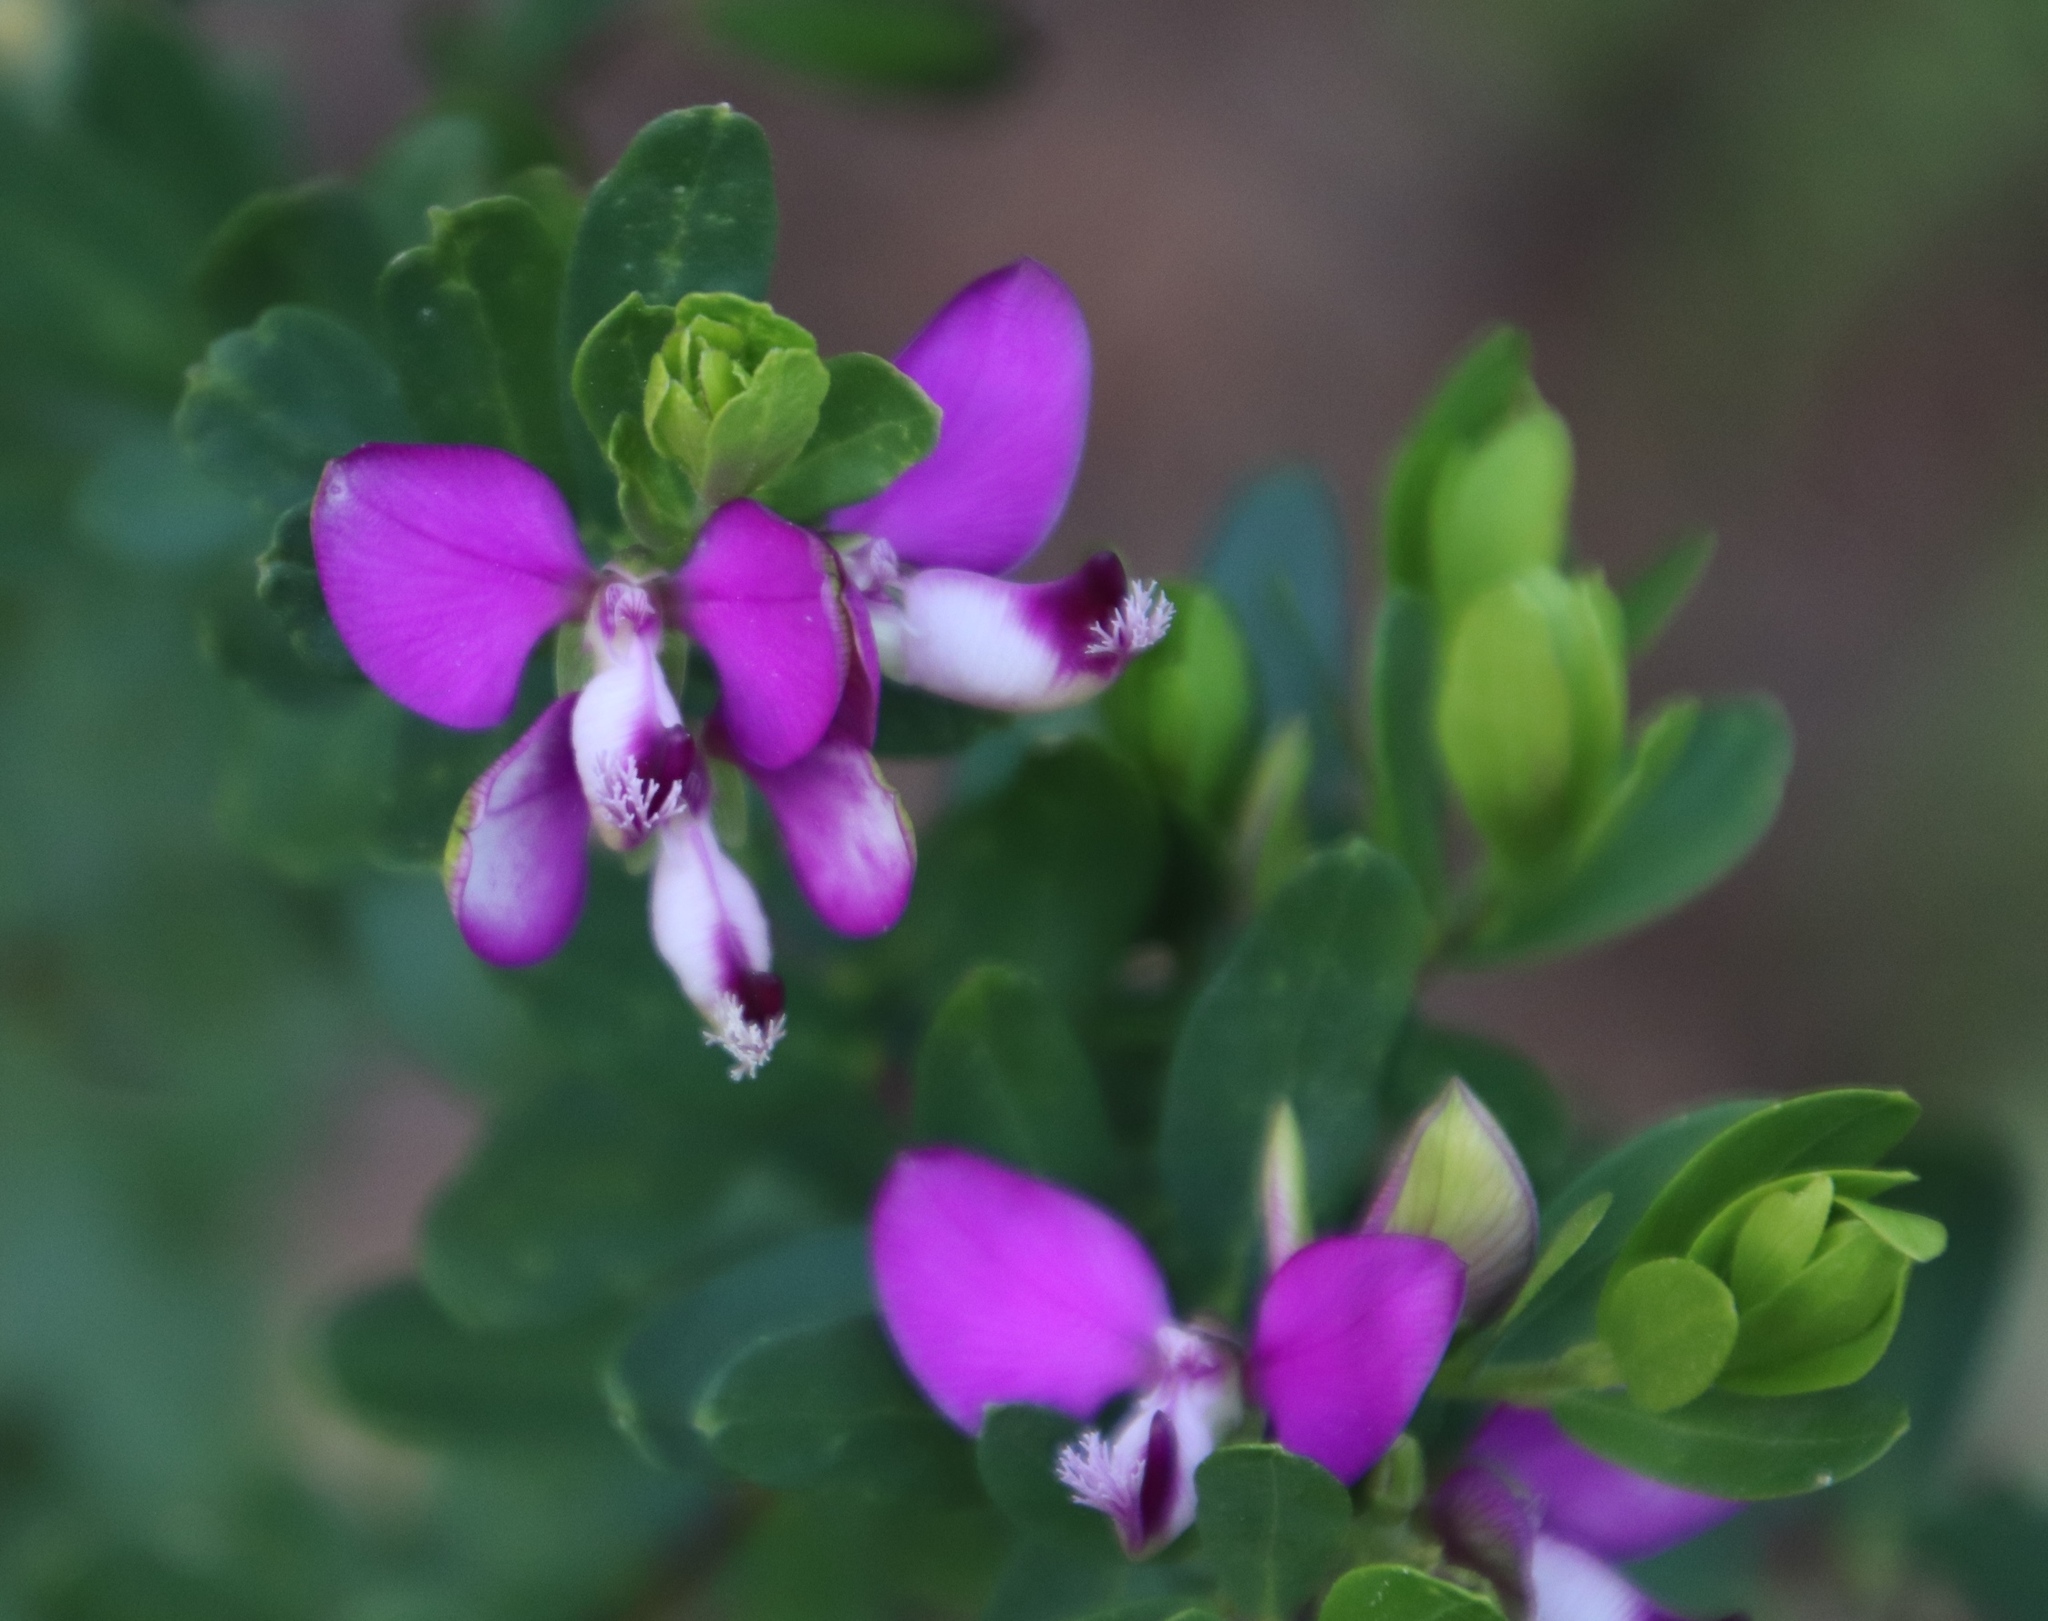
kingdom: Plantae
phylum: Tracheophyta
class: Magnoliopsida
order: Fabales
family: Polygalaceae
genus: Polygala
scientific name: Polygala myrtifolia
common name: Myrtle-leaf milkwort
